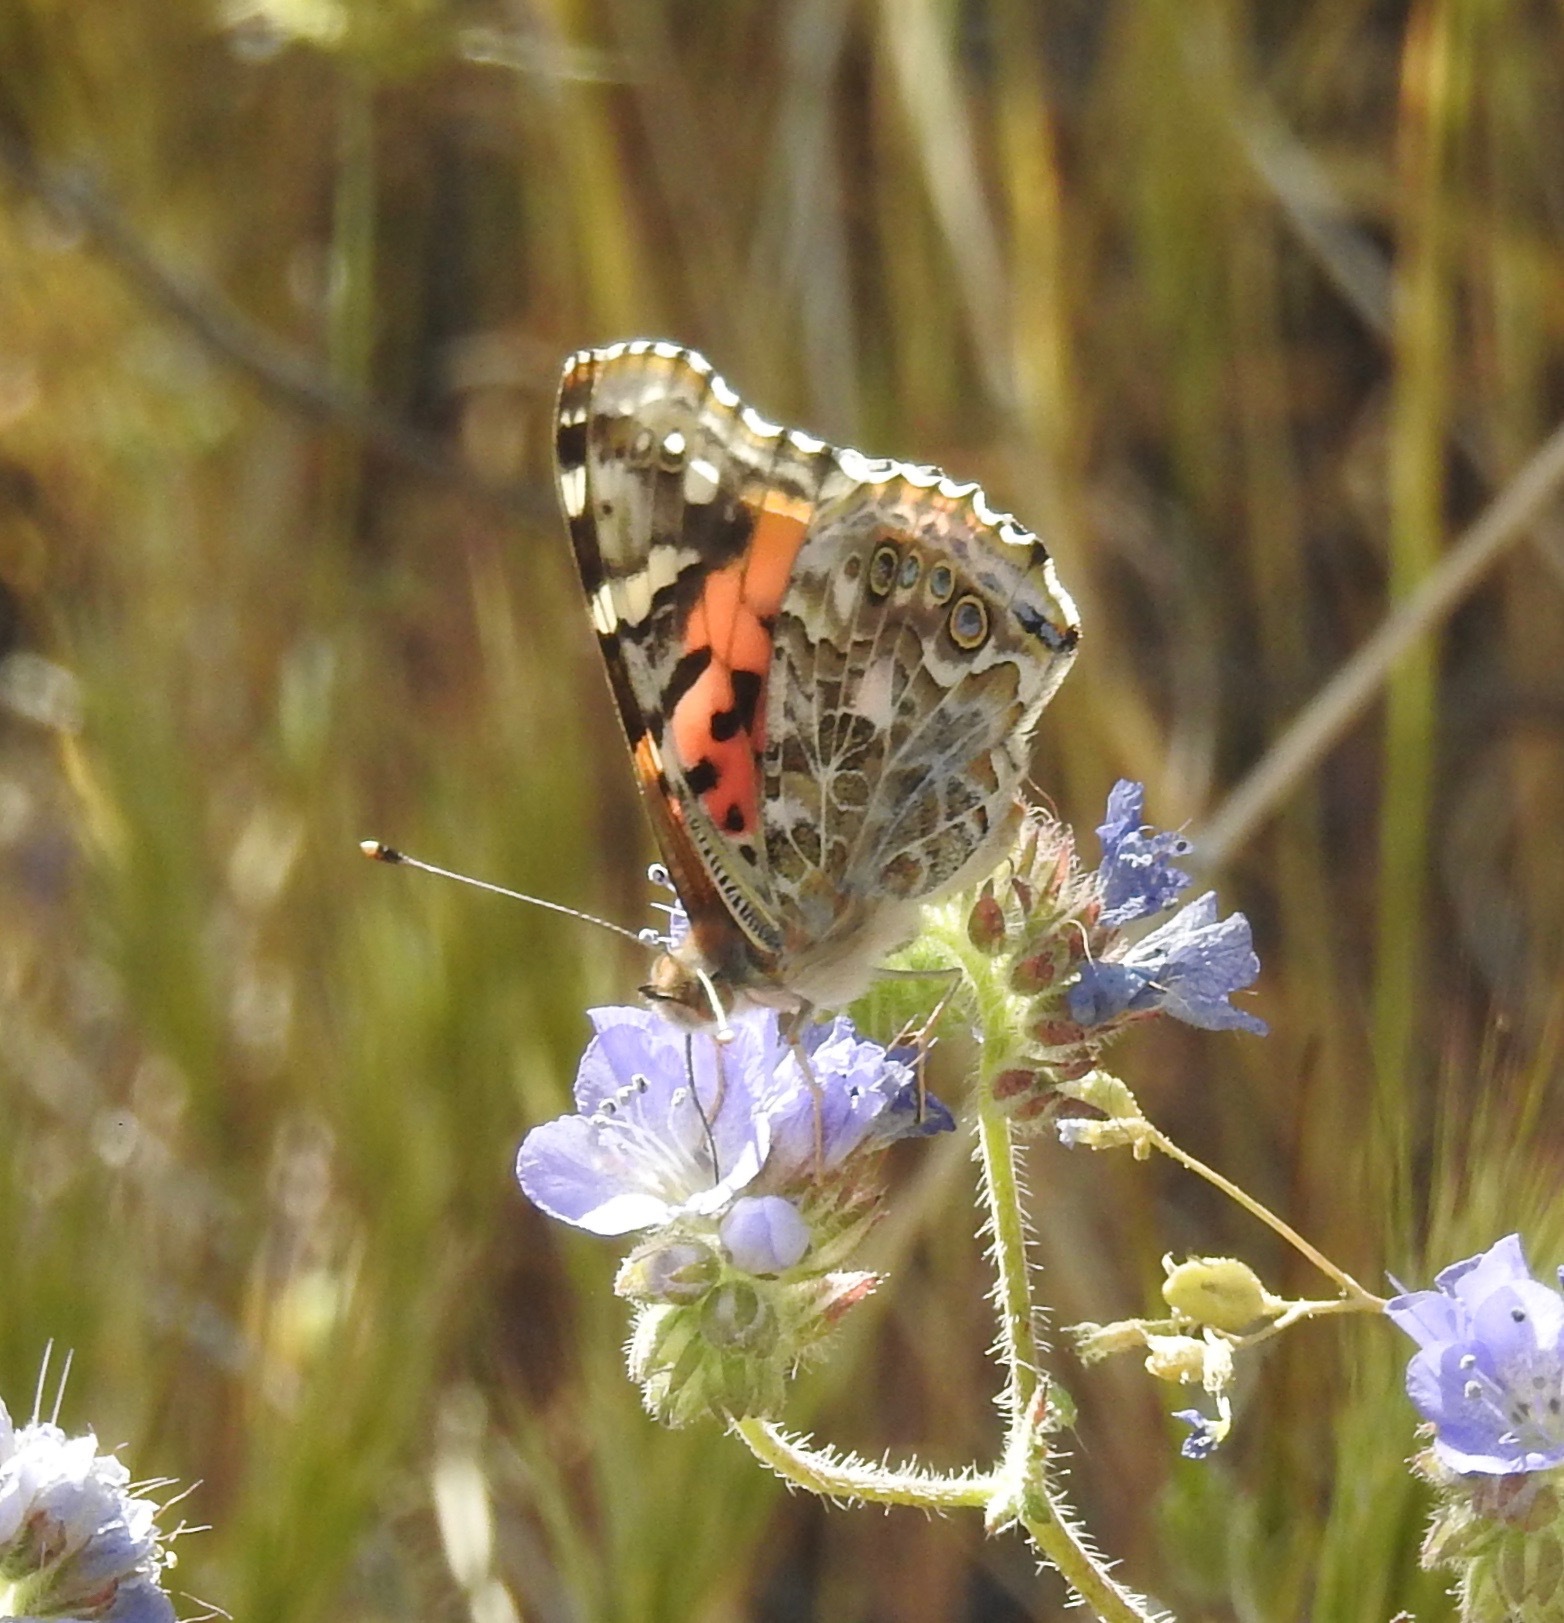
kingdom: Animalia
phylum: Arthropoda
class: Insecta
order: Lepidoptera
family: Nymphalidae
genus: Vanessa
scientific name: Vanessa cardui
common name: Painted lady
